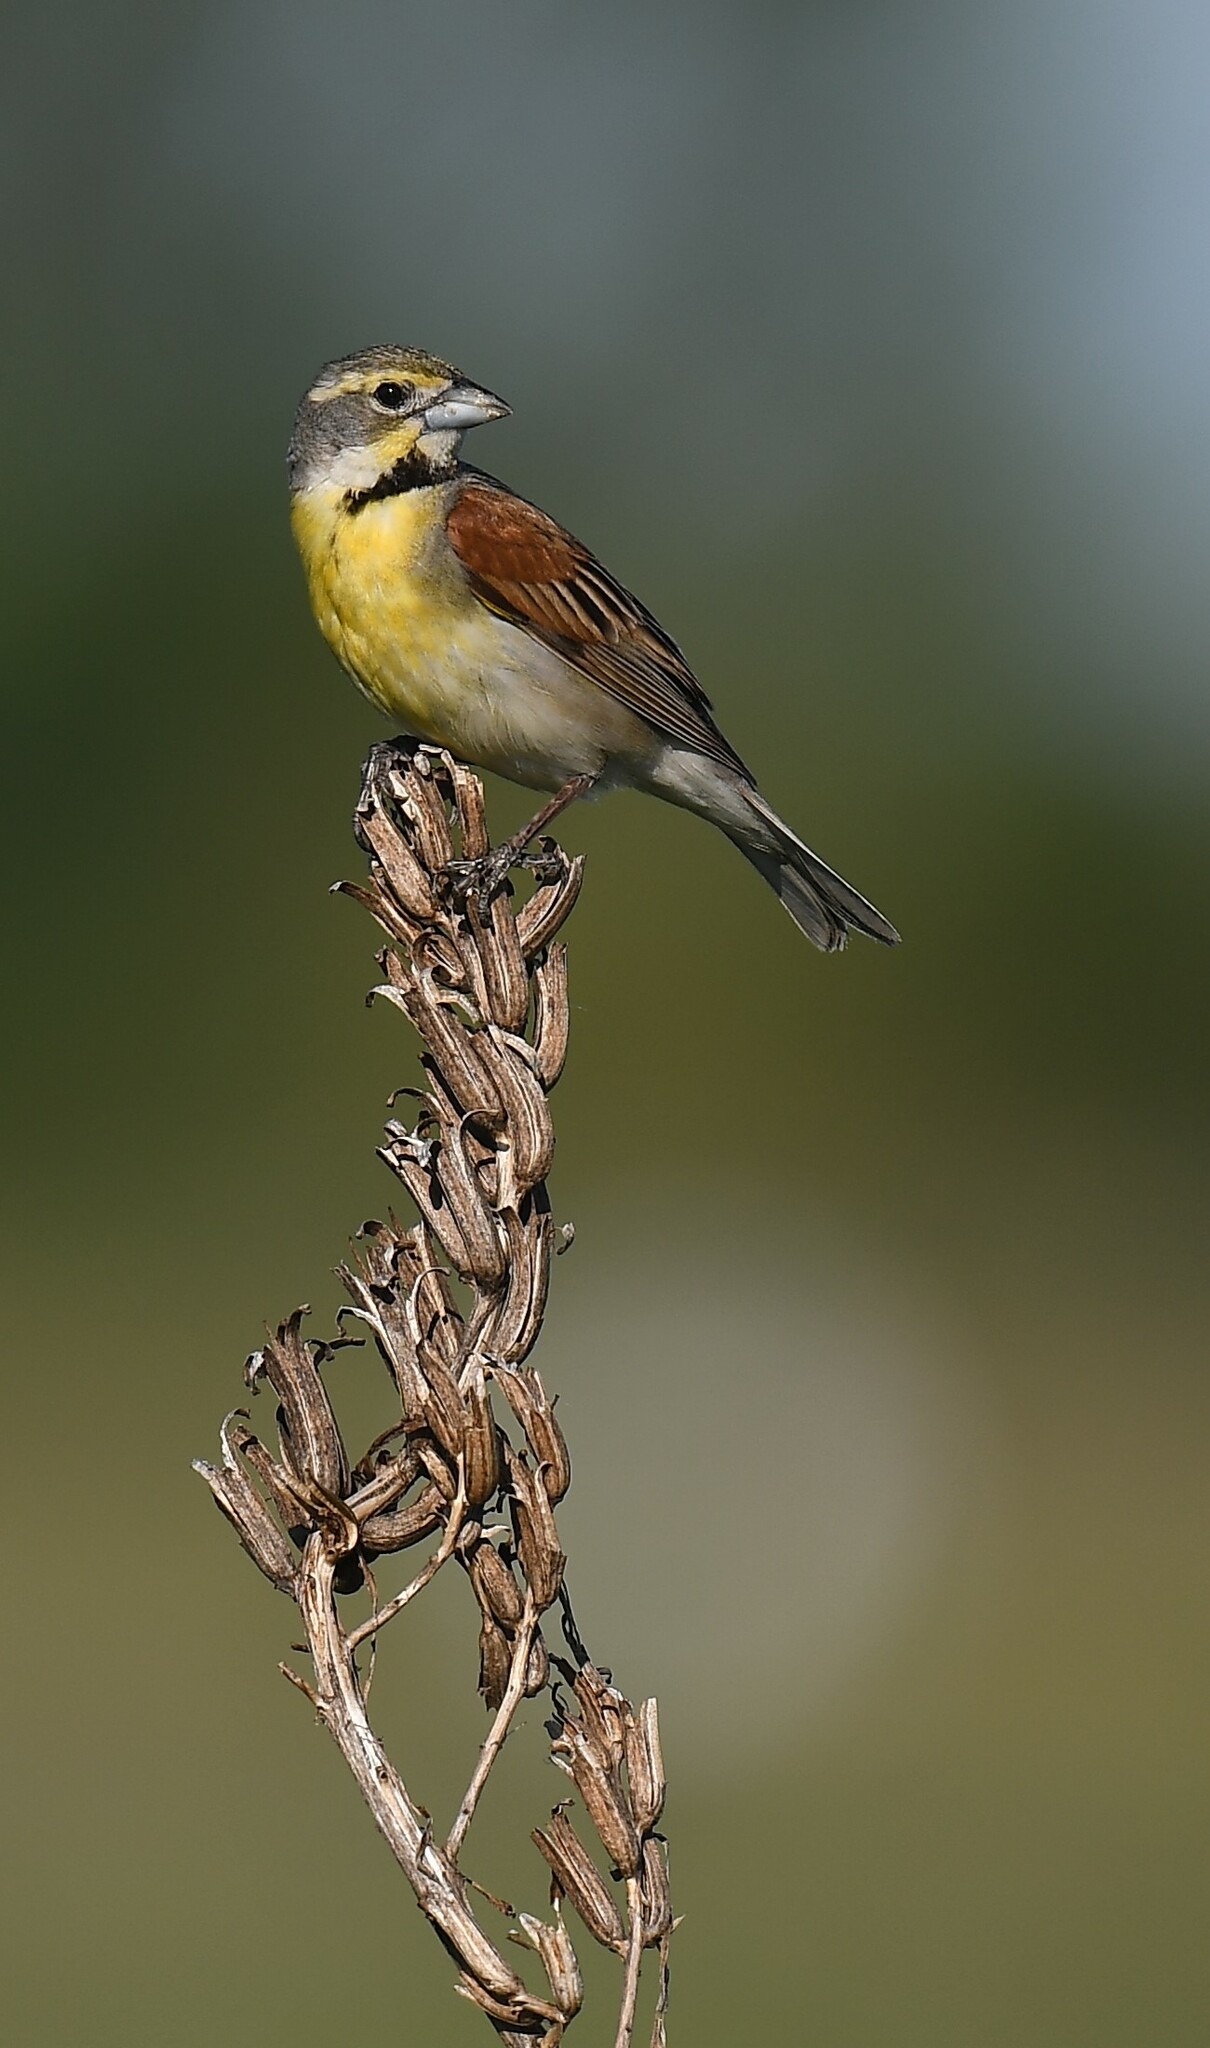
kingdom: Animalia
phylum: Chordata
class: Aves
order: Passeriformes
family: Cardinalidae
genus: Spiza
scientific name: Spiza americana
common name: Dickcissel
